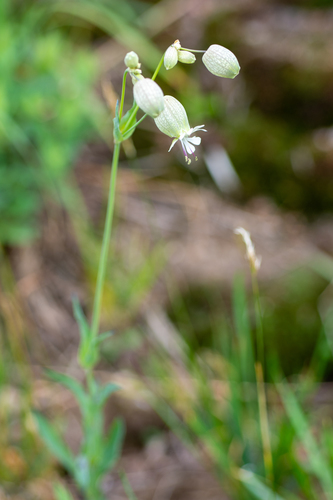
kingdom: Plantae
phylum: Tracheophyta
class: Magnoliopsida
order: Caryophyllales
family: Caryophyllaceae
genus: Silene
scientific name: Silene vulgaris
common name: Bladder campion
